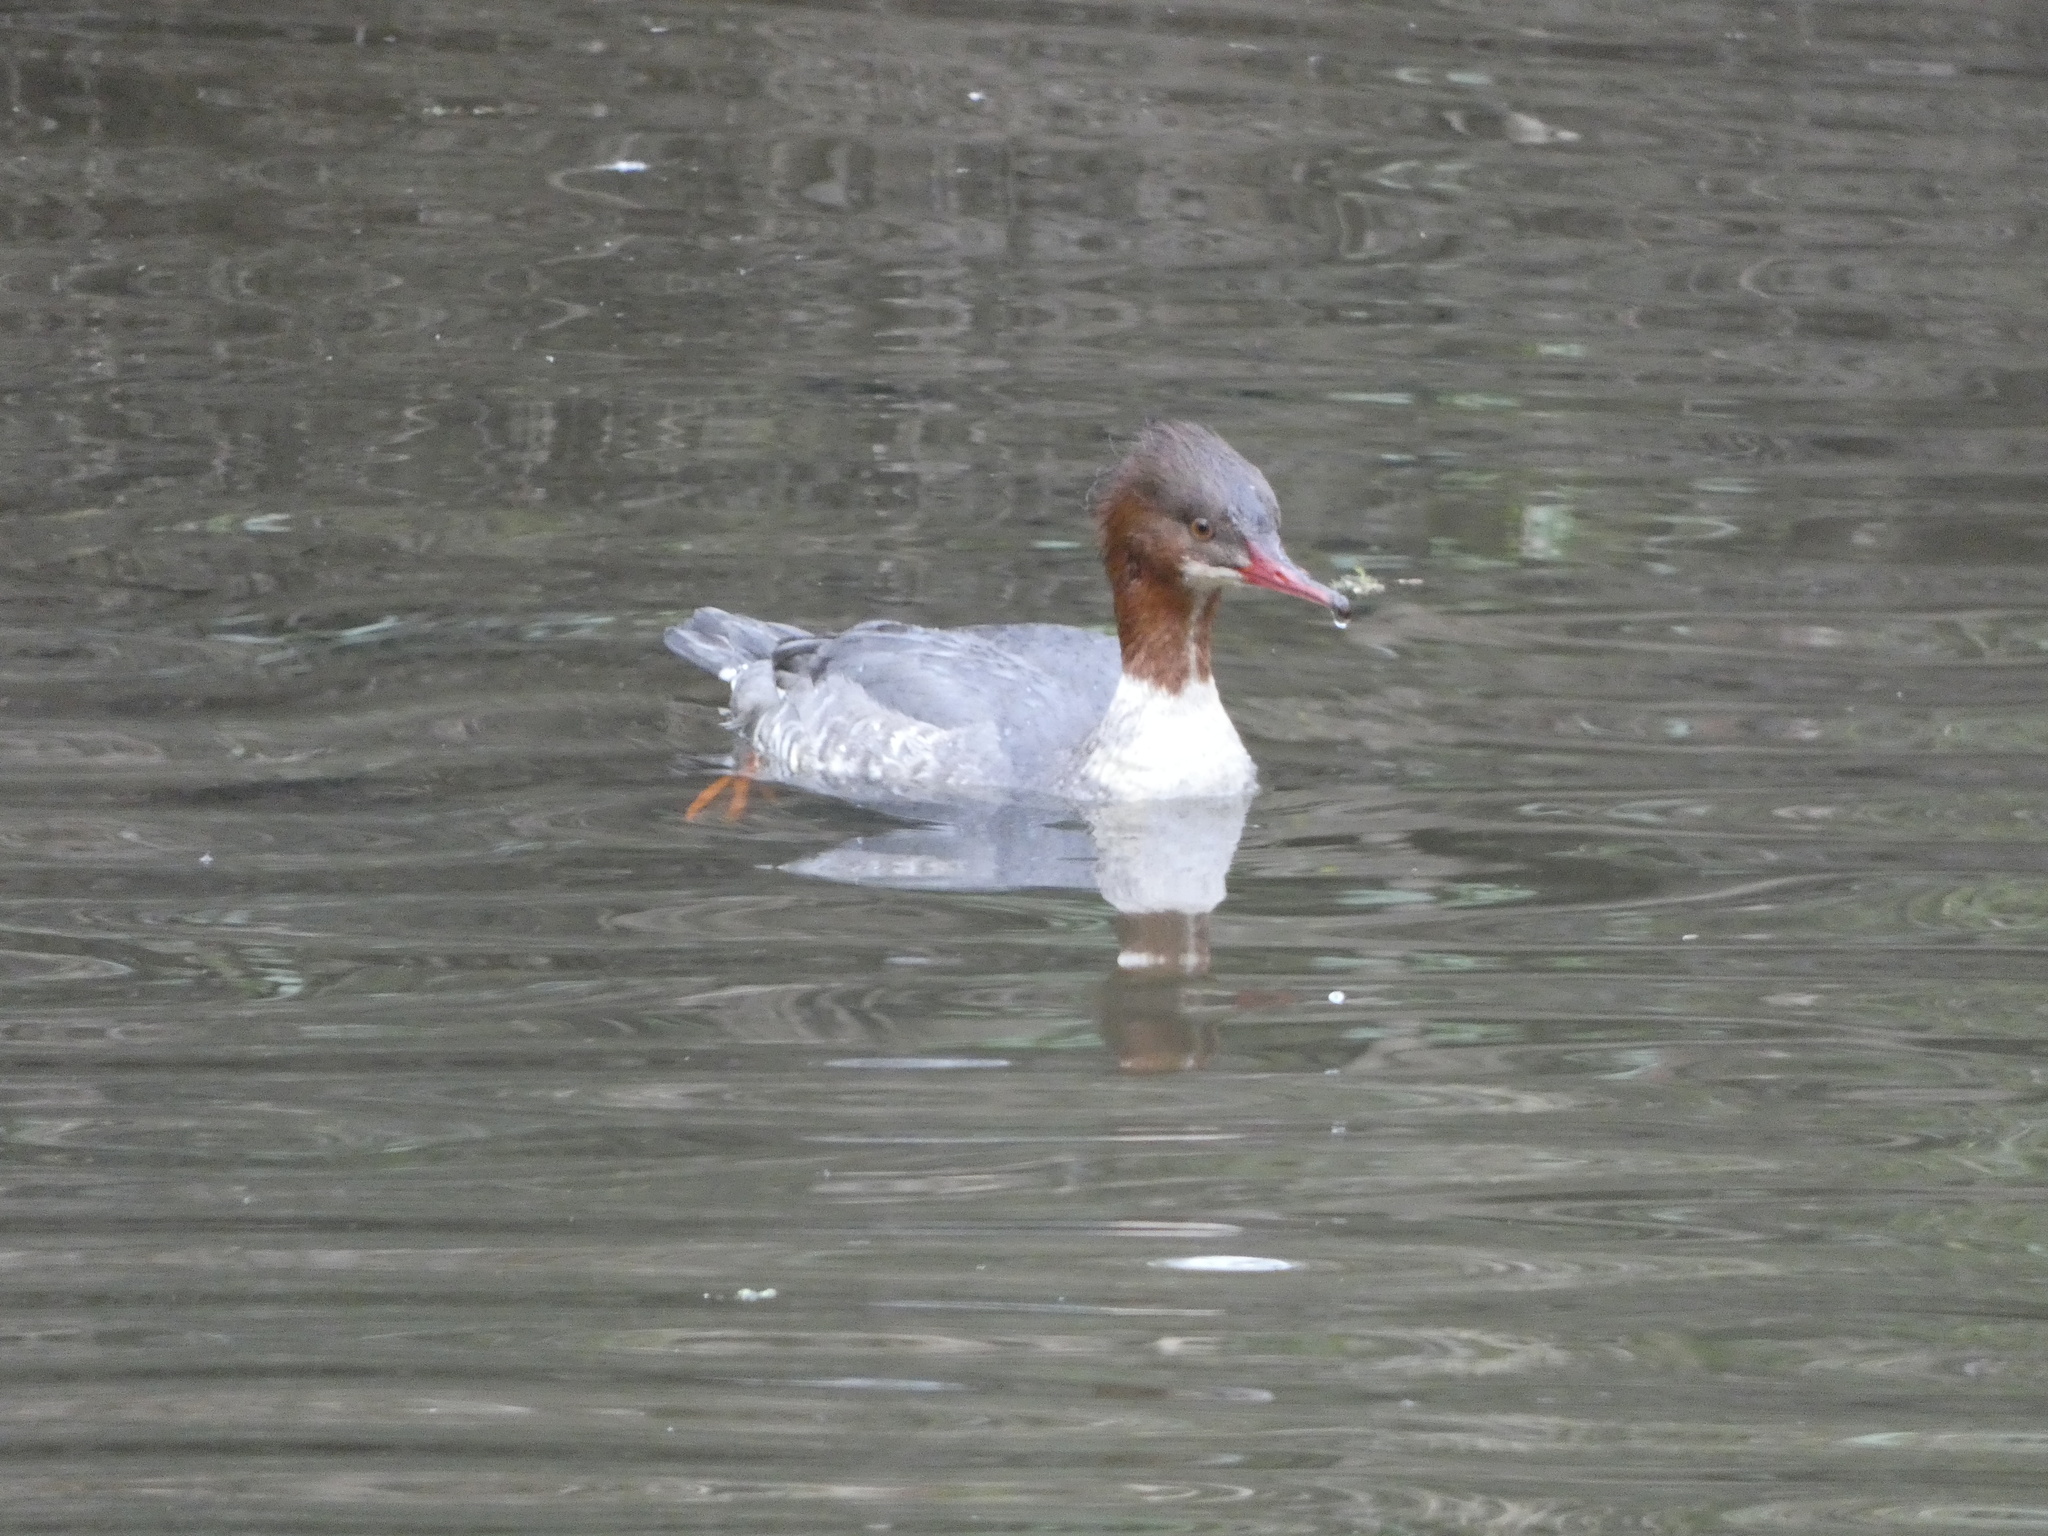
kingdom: Animalia
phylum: Chordata
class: Aves
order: Anseriformes
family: Anatidae
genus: Mergus
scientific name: Mergus merganser
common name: Common merganser
